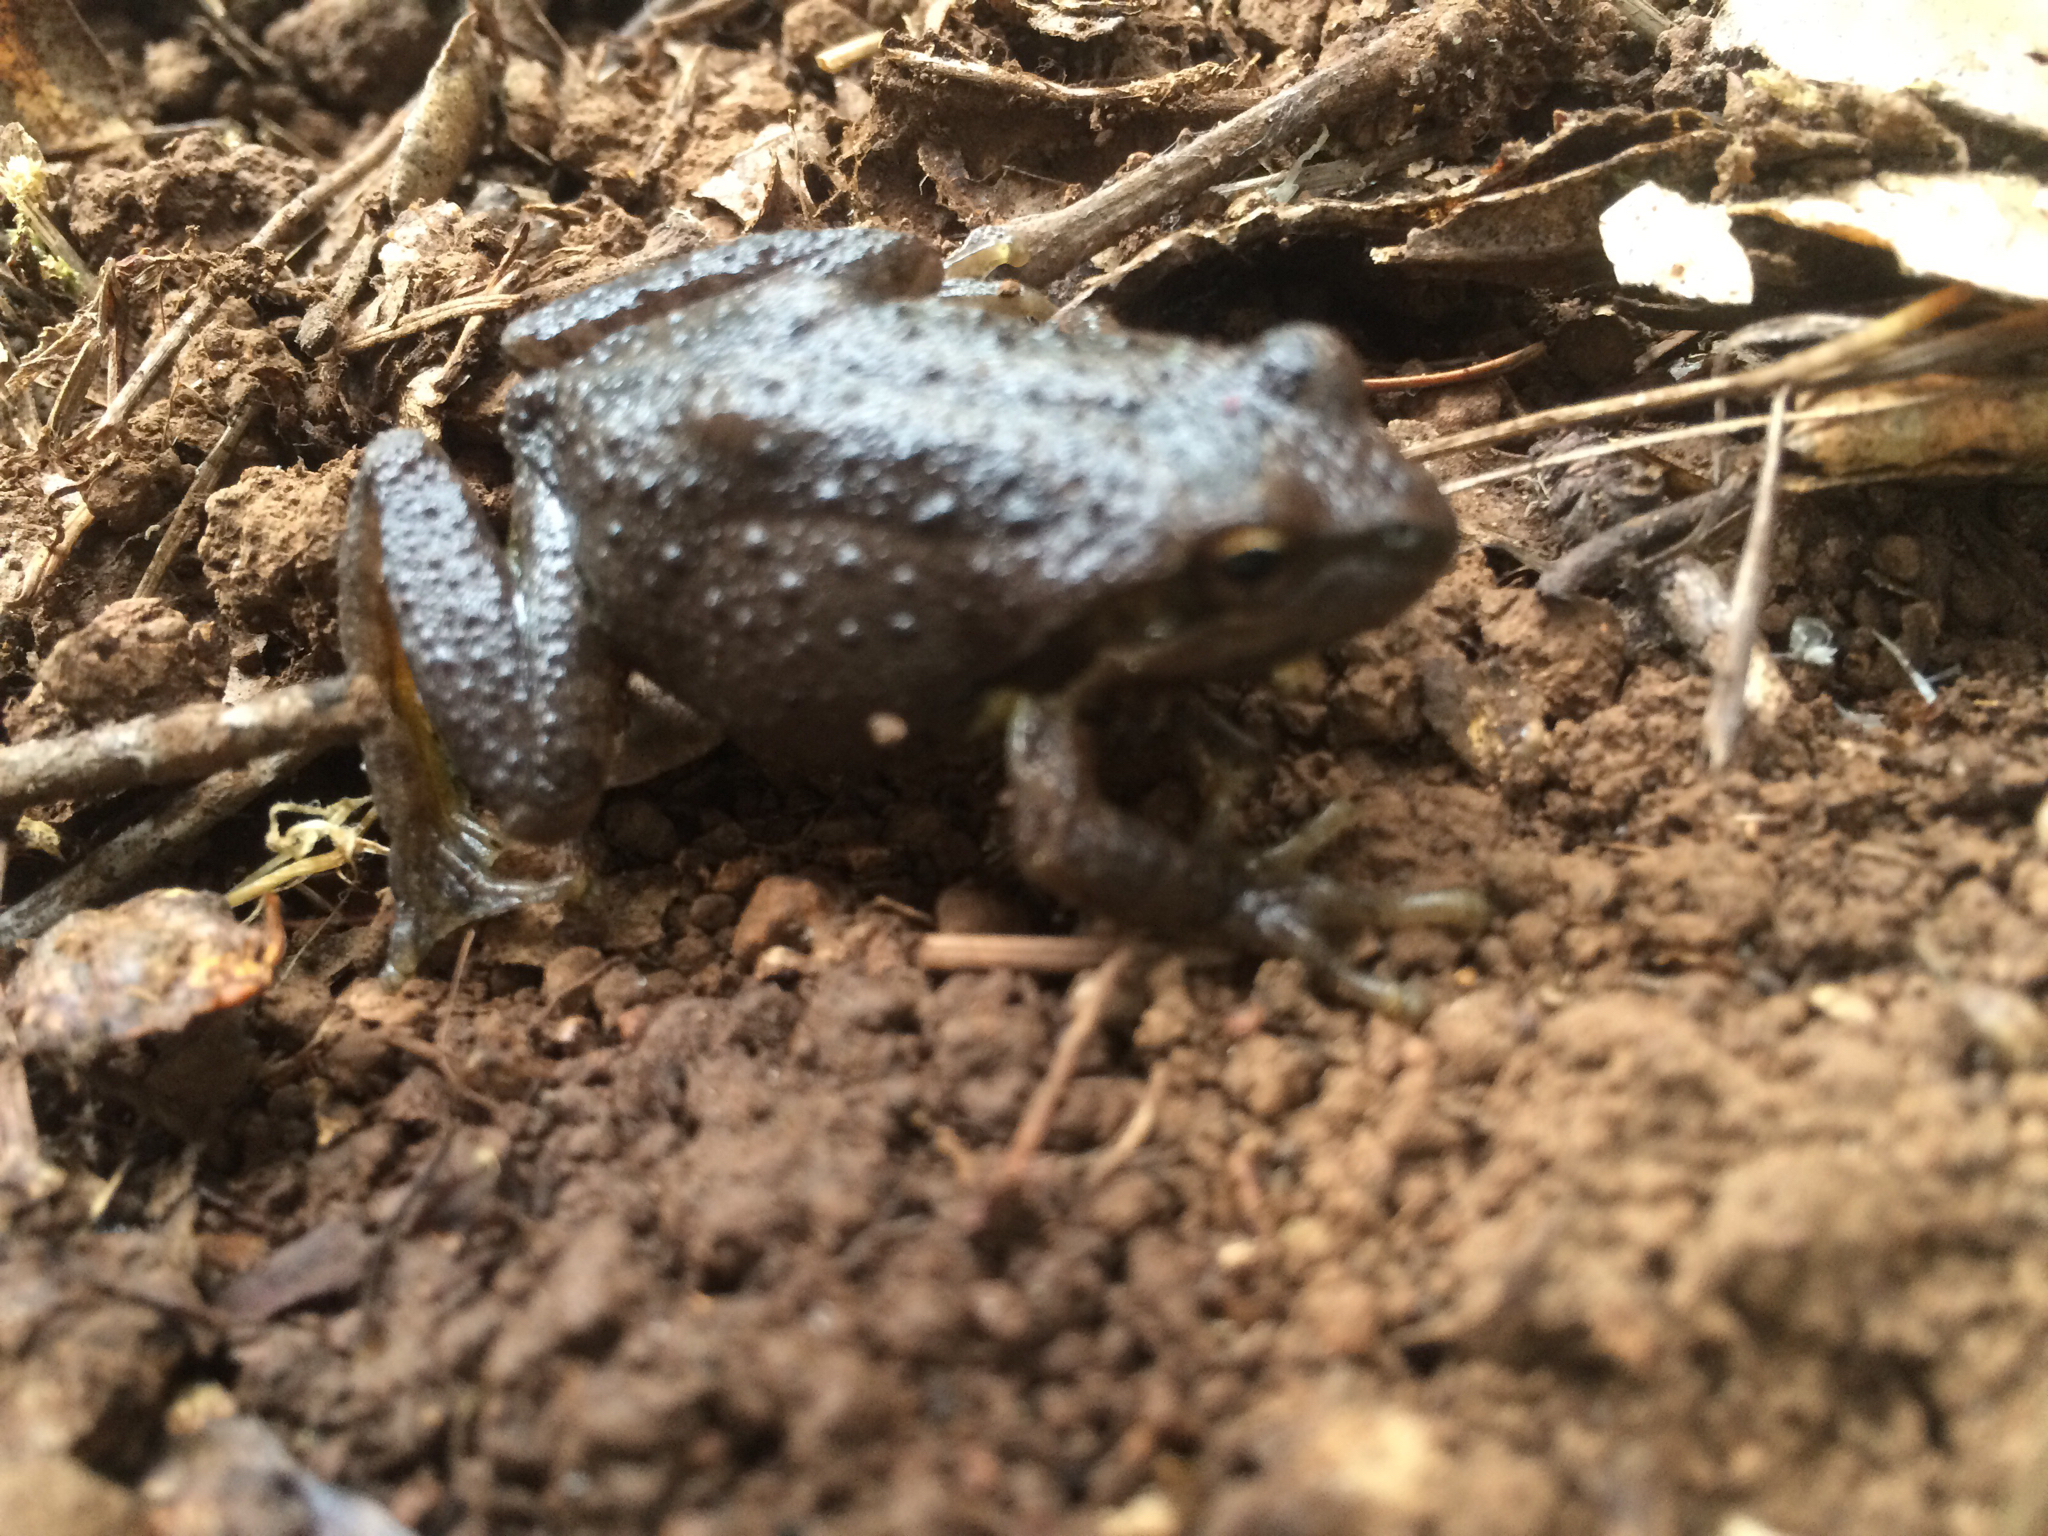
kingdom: Animalia
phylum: Chordata
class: Amphibia
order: Anura
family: Hylidae
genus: Pseudacris
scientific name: Pseudacris regilla
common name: Pacific chorus frog
